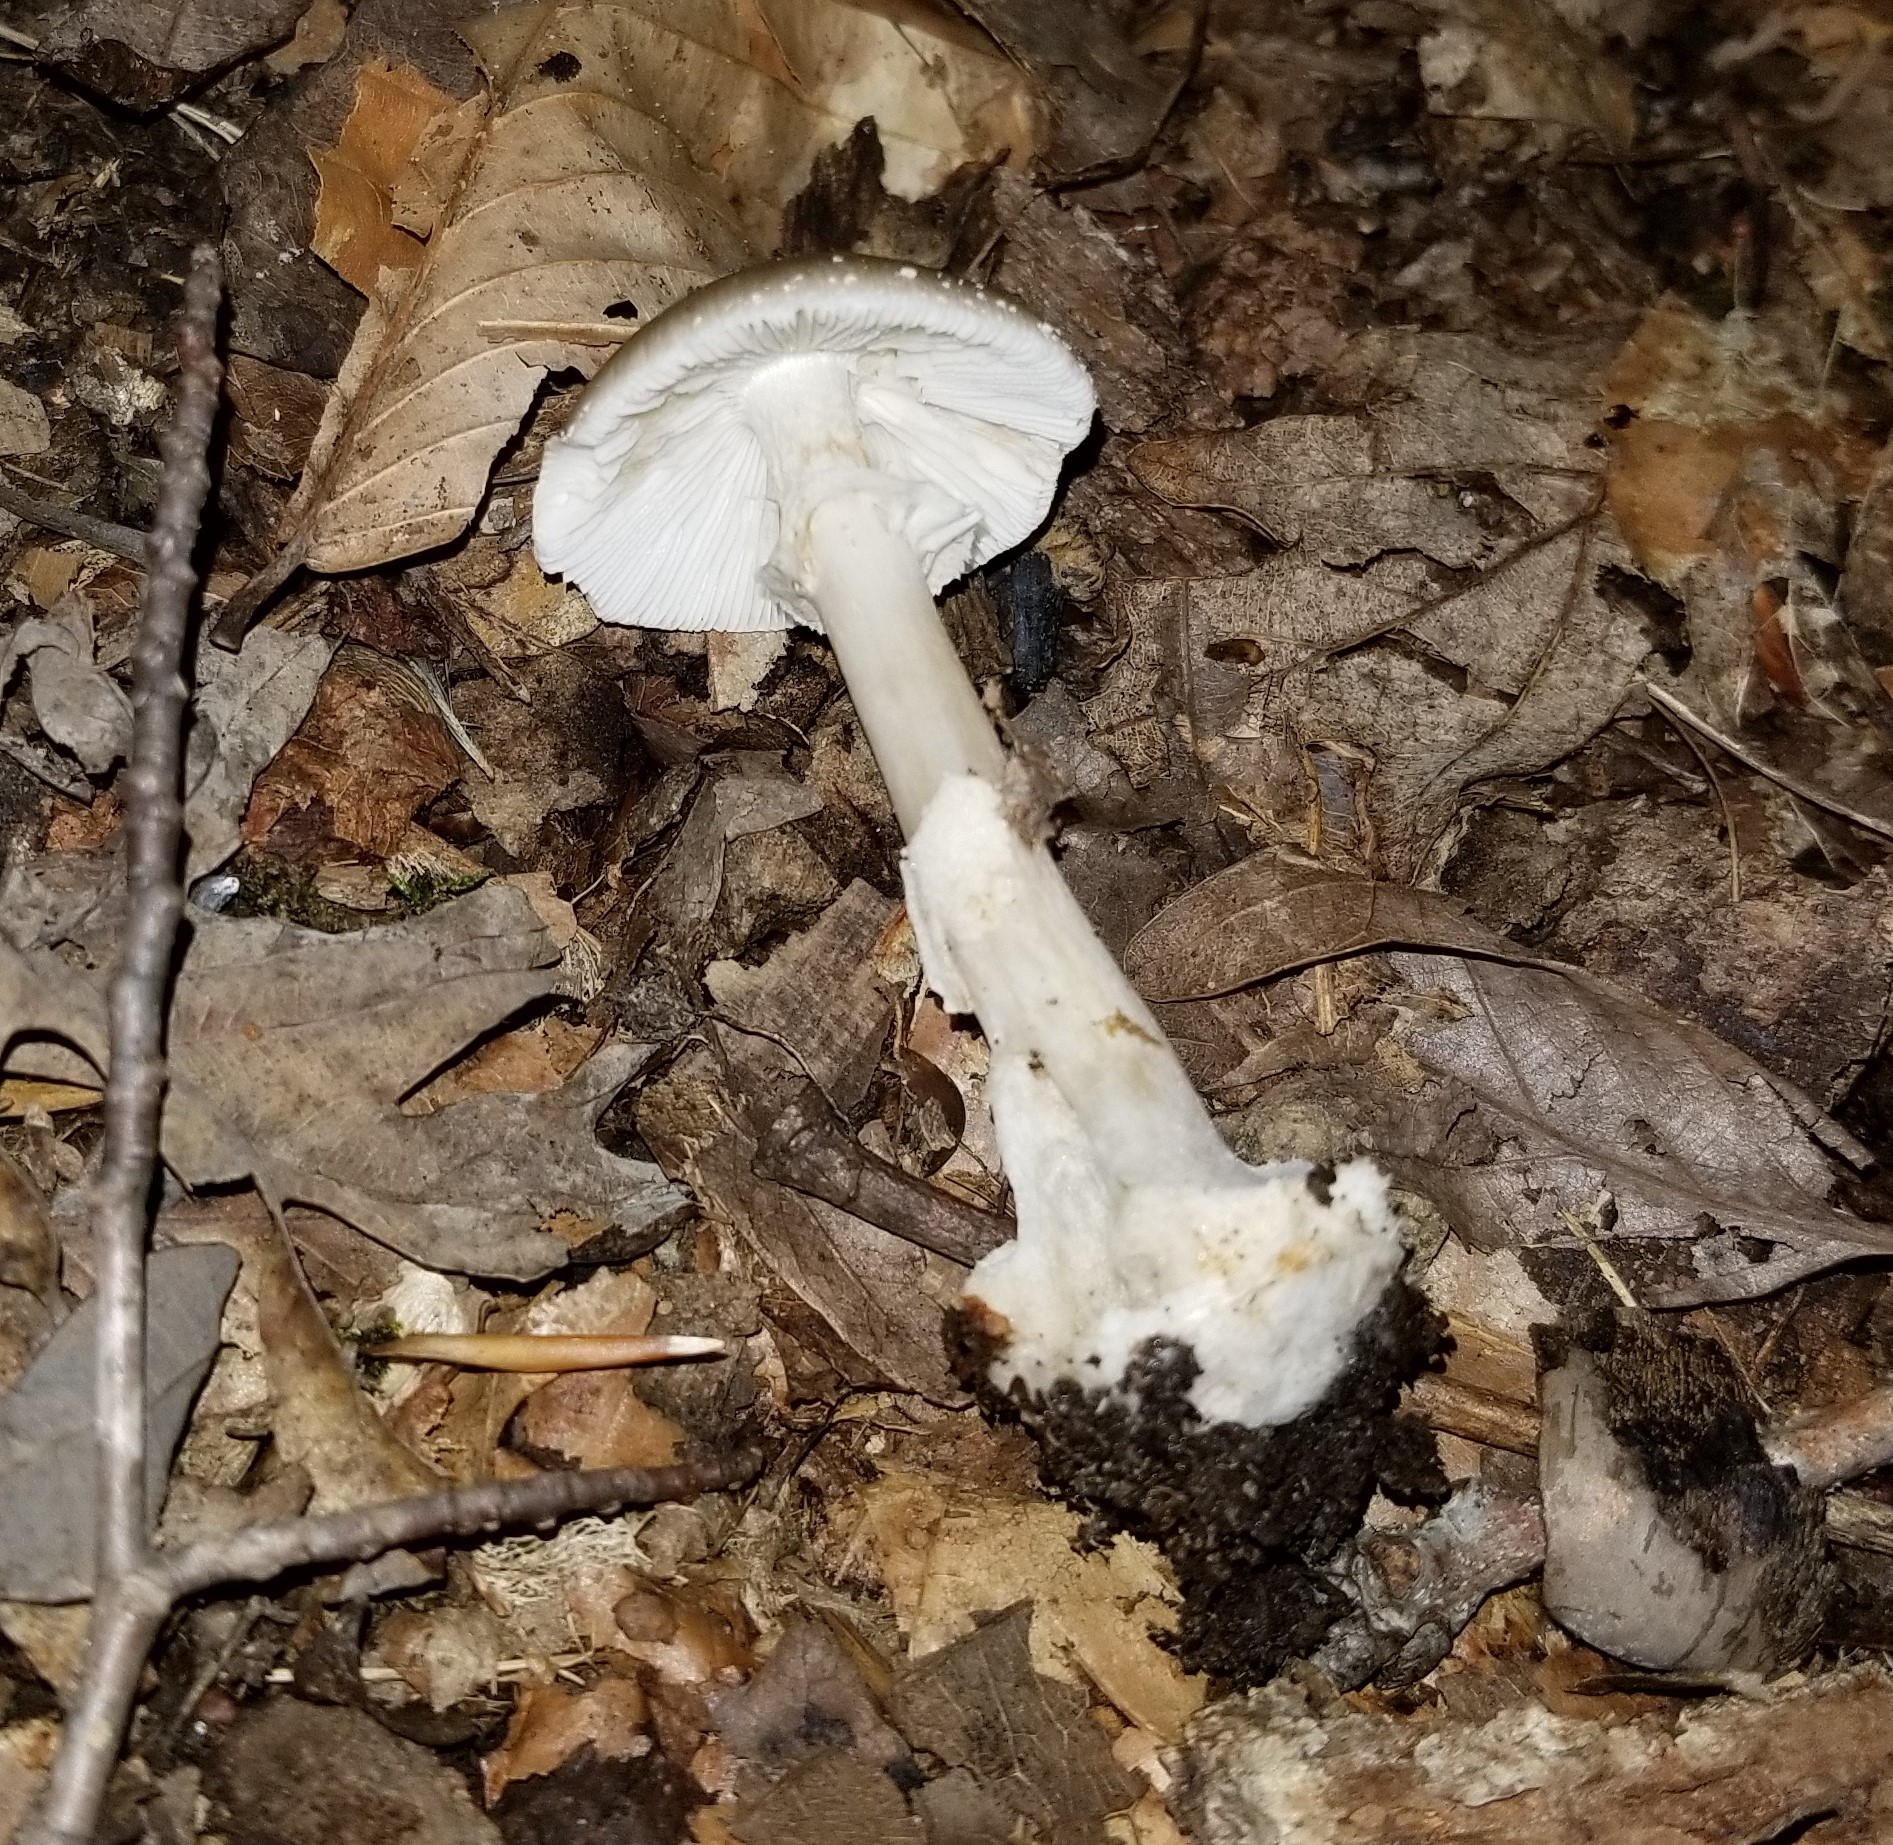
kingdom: Fungi
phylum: Basidiomycota
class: Agaricomycetes
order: Agaricales
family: Amanitaceae
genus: Amanita
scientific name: Amanita brunnescens
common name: Brown american star-footed amanita
